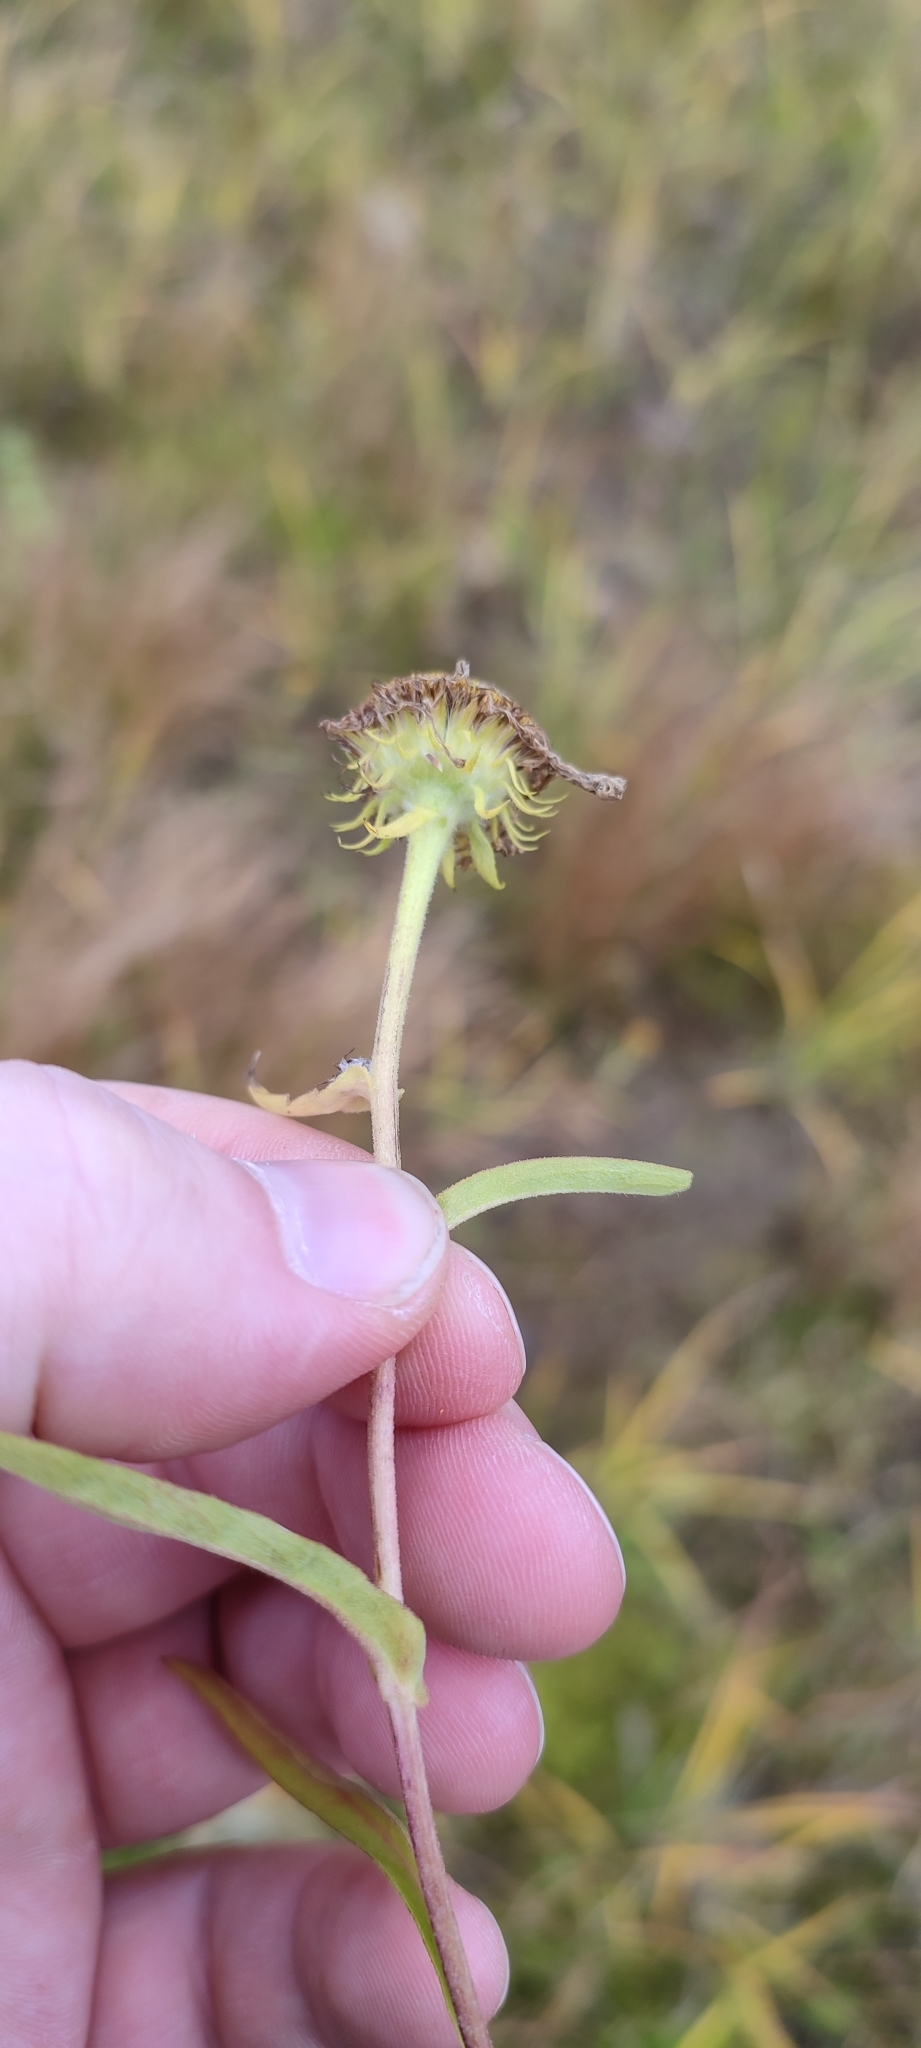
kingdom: Plantae
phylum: Tracheophyta
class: Magnoliopsida
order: Asterales
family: Asteraceae
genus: Pentanema
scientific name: Pentanema britannicum
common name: British elecampane
